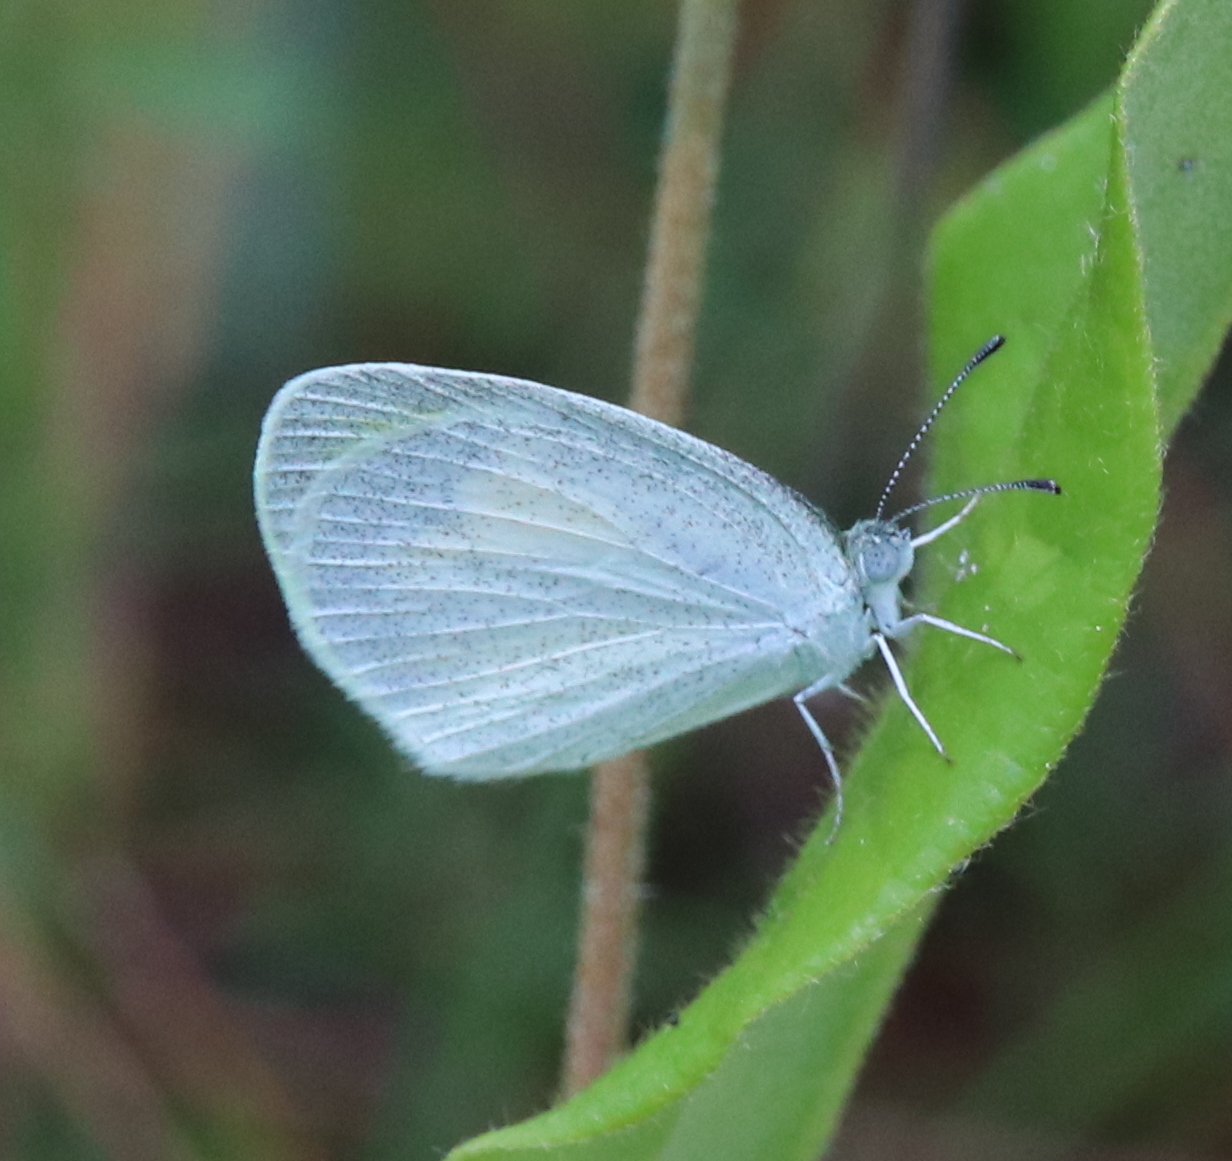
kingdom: Animalia
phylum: Arthropoda
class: Insecta
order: Lepidoptera
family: Pieridae
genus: Eurema
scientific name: Eurema daira
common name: Barred sulphur
